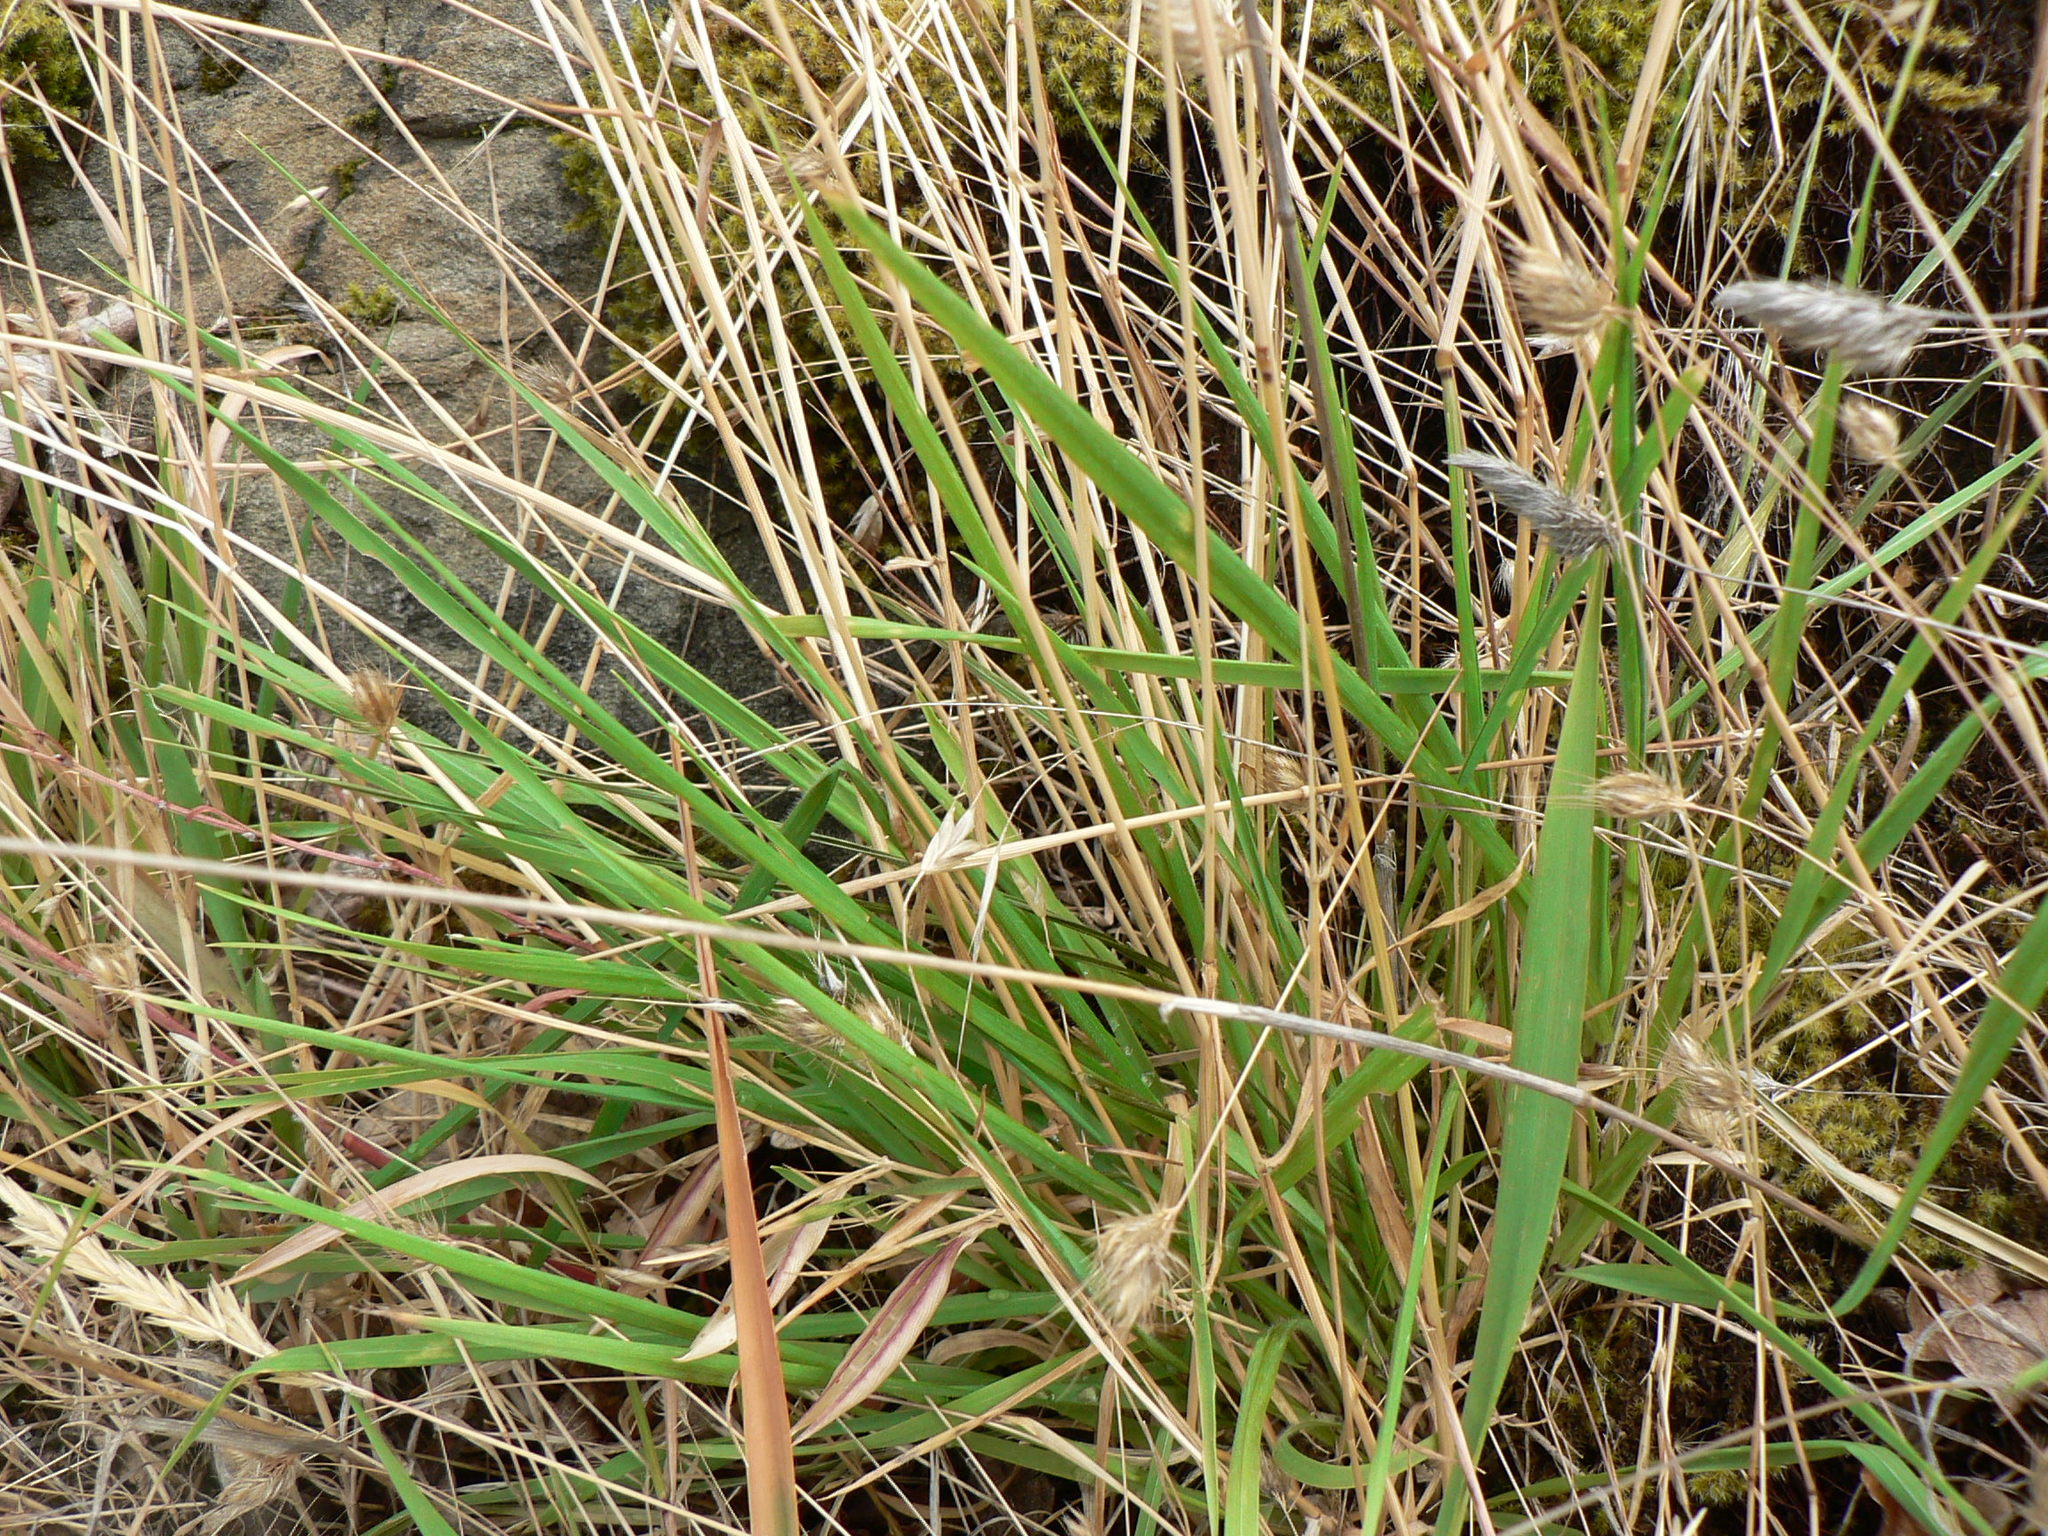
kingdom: Plantae
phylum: Tracheophyta
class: Liliopsida
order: Poales
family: Poaceae
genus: Anthoxanthum
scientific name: Anthoxanthum odoratum
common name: Sweet vernalgrass
